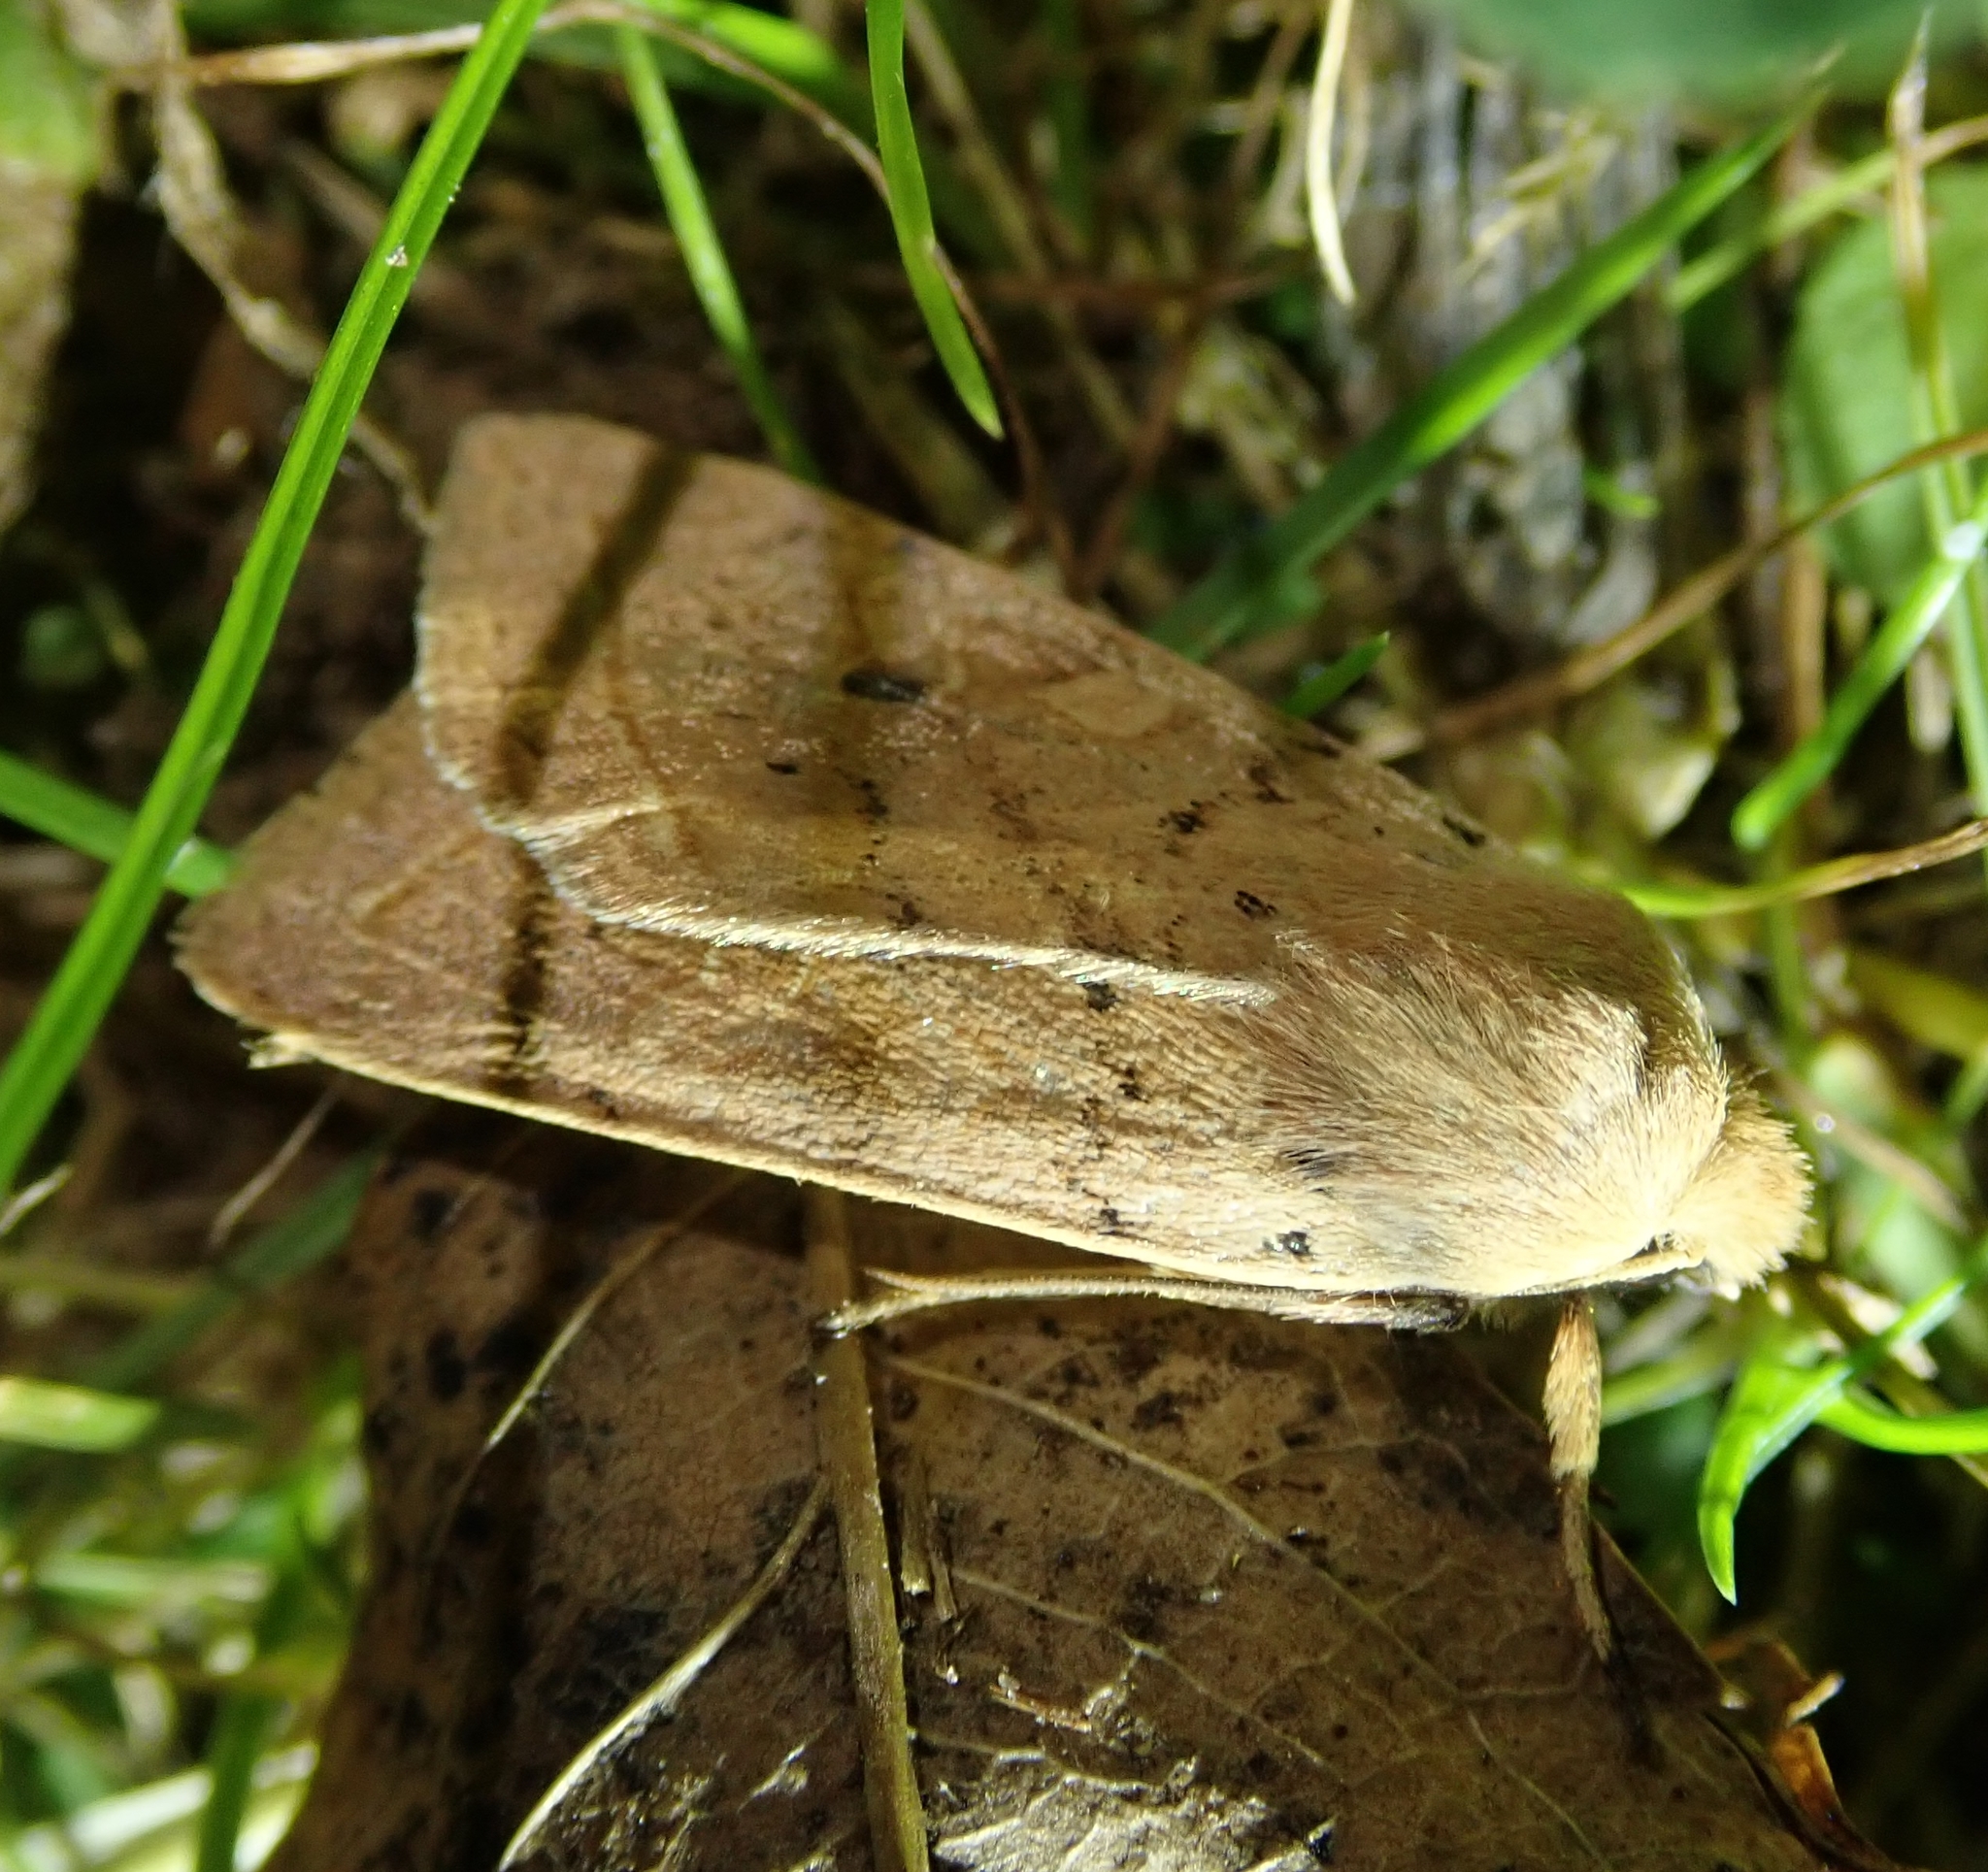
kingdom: Animalia
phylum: Arthropoda
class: Insecta
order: Lepidoptera
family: Noctuidae
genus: Agrochola
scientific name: Agrochola macilenta
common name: Yellow-line quaker
